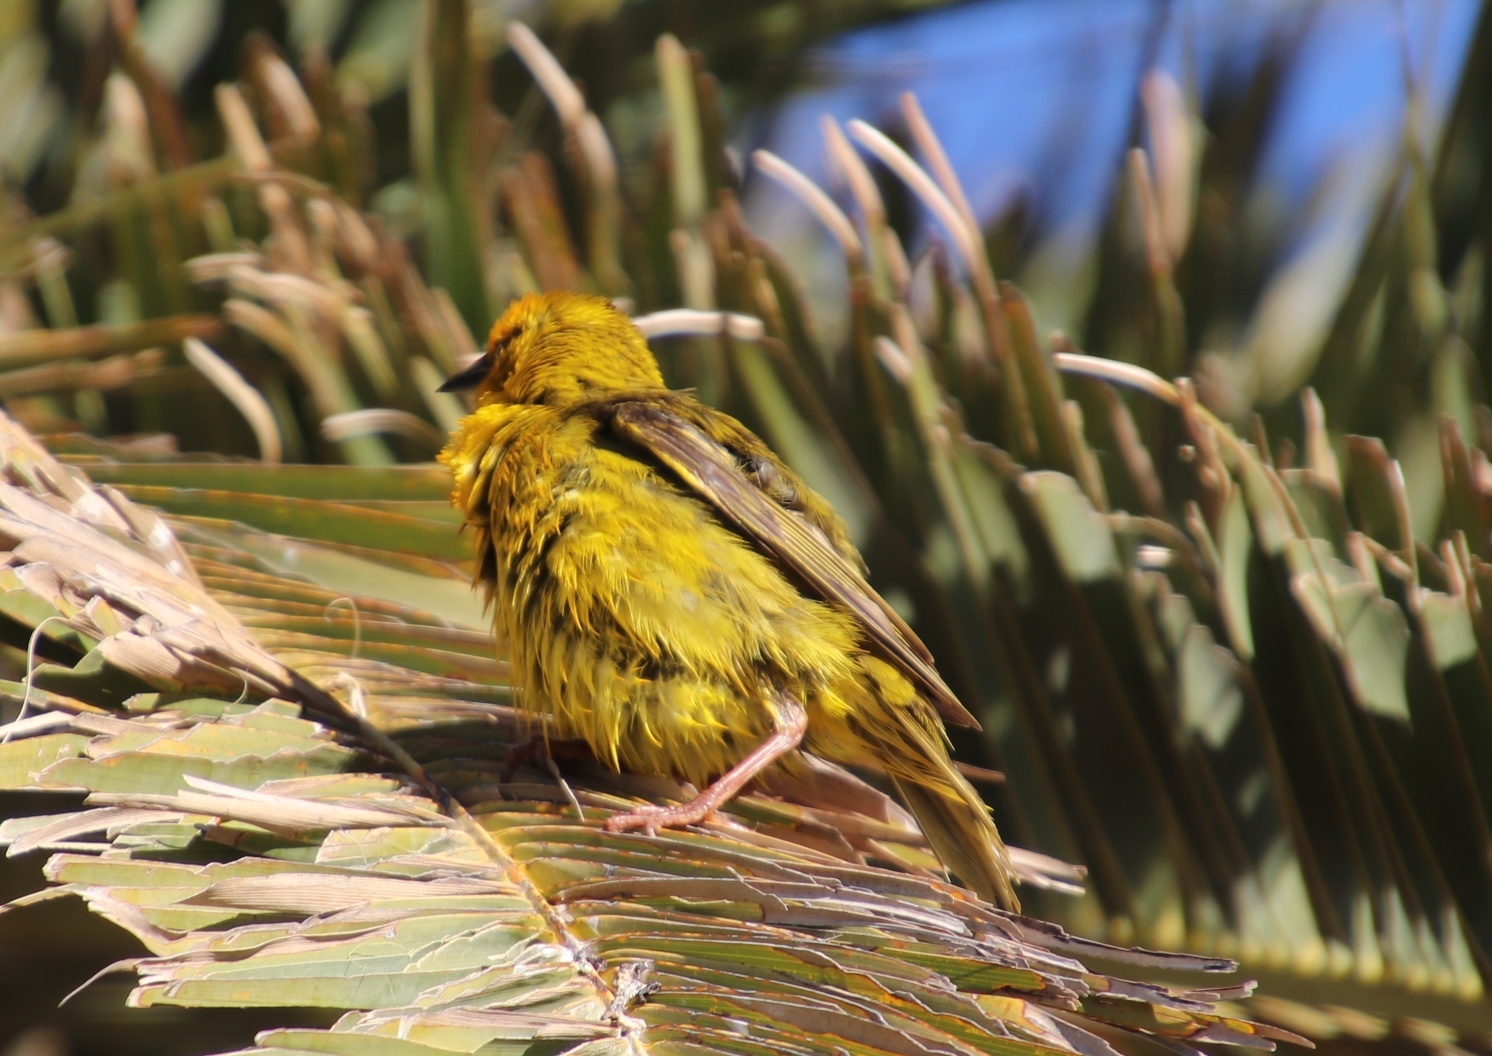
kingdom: Animalia
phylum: Chordata
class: Aves
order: Passeriformes
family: Ploceidae
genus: Ploceus
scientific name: Ploceus capensis
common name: Cape weaver
